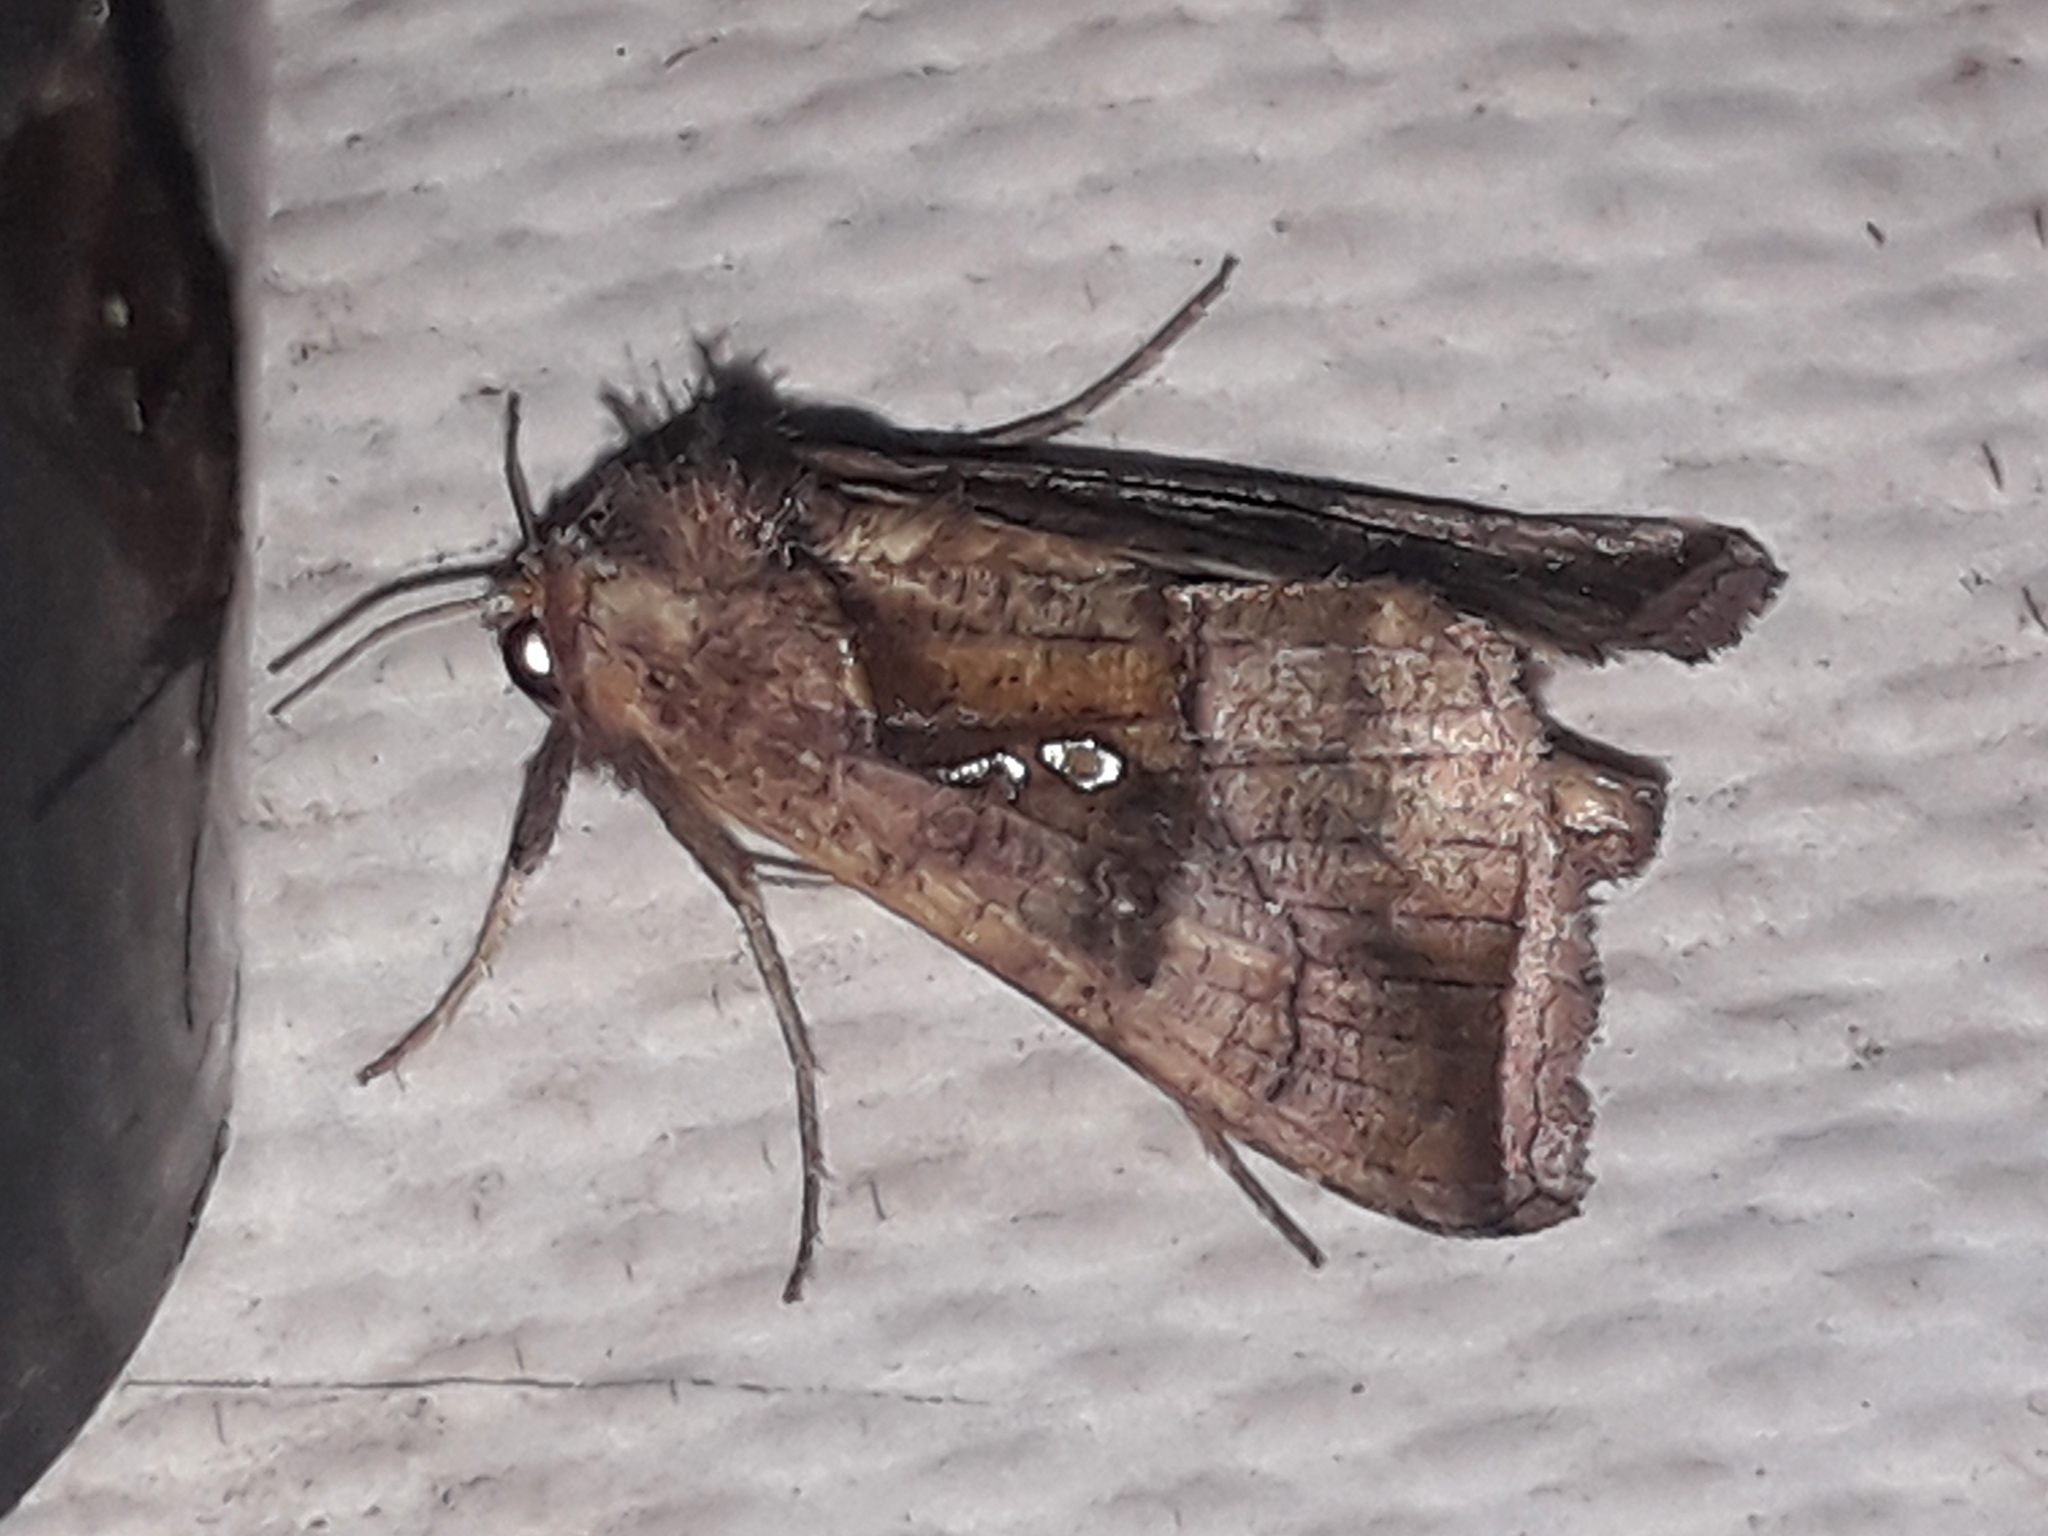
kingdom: Animalia
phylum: Arthropoda
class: Insecta
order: Lepidoptera
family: Noctuidae
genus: Enigmogramma
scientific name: Enigmogramma basigera
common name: Pink-washed looper moth
